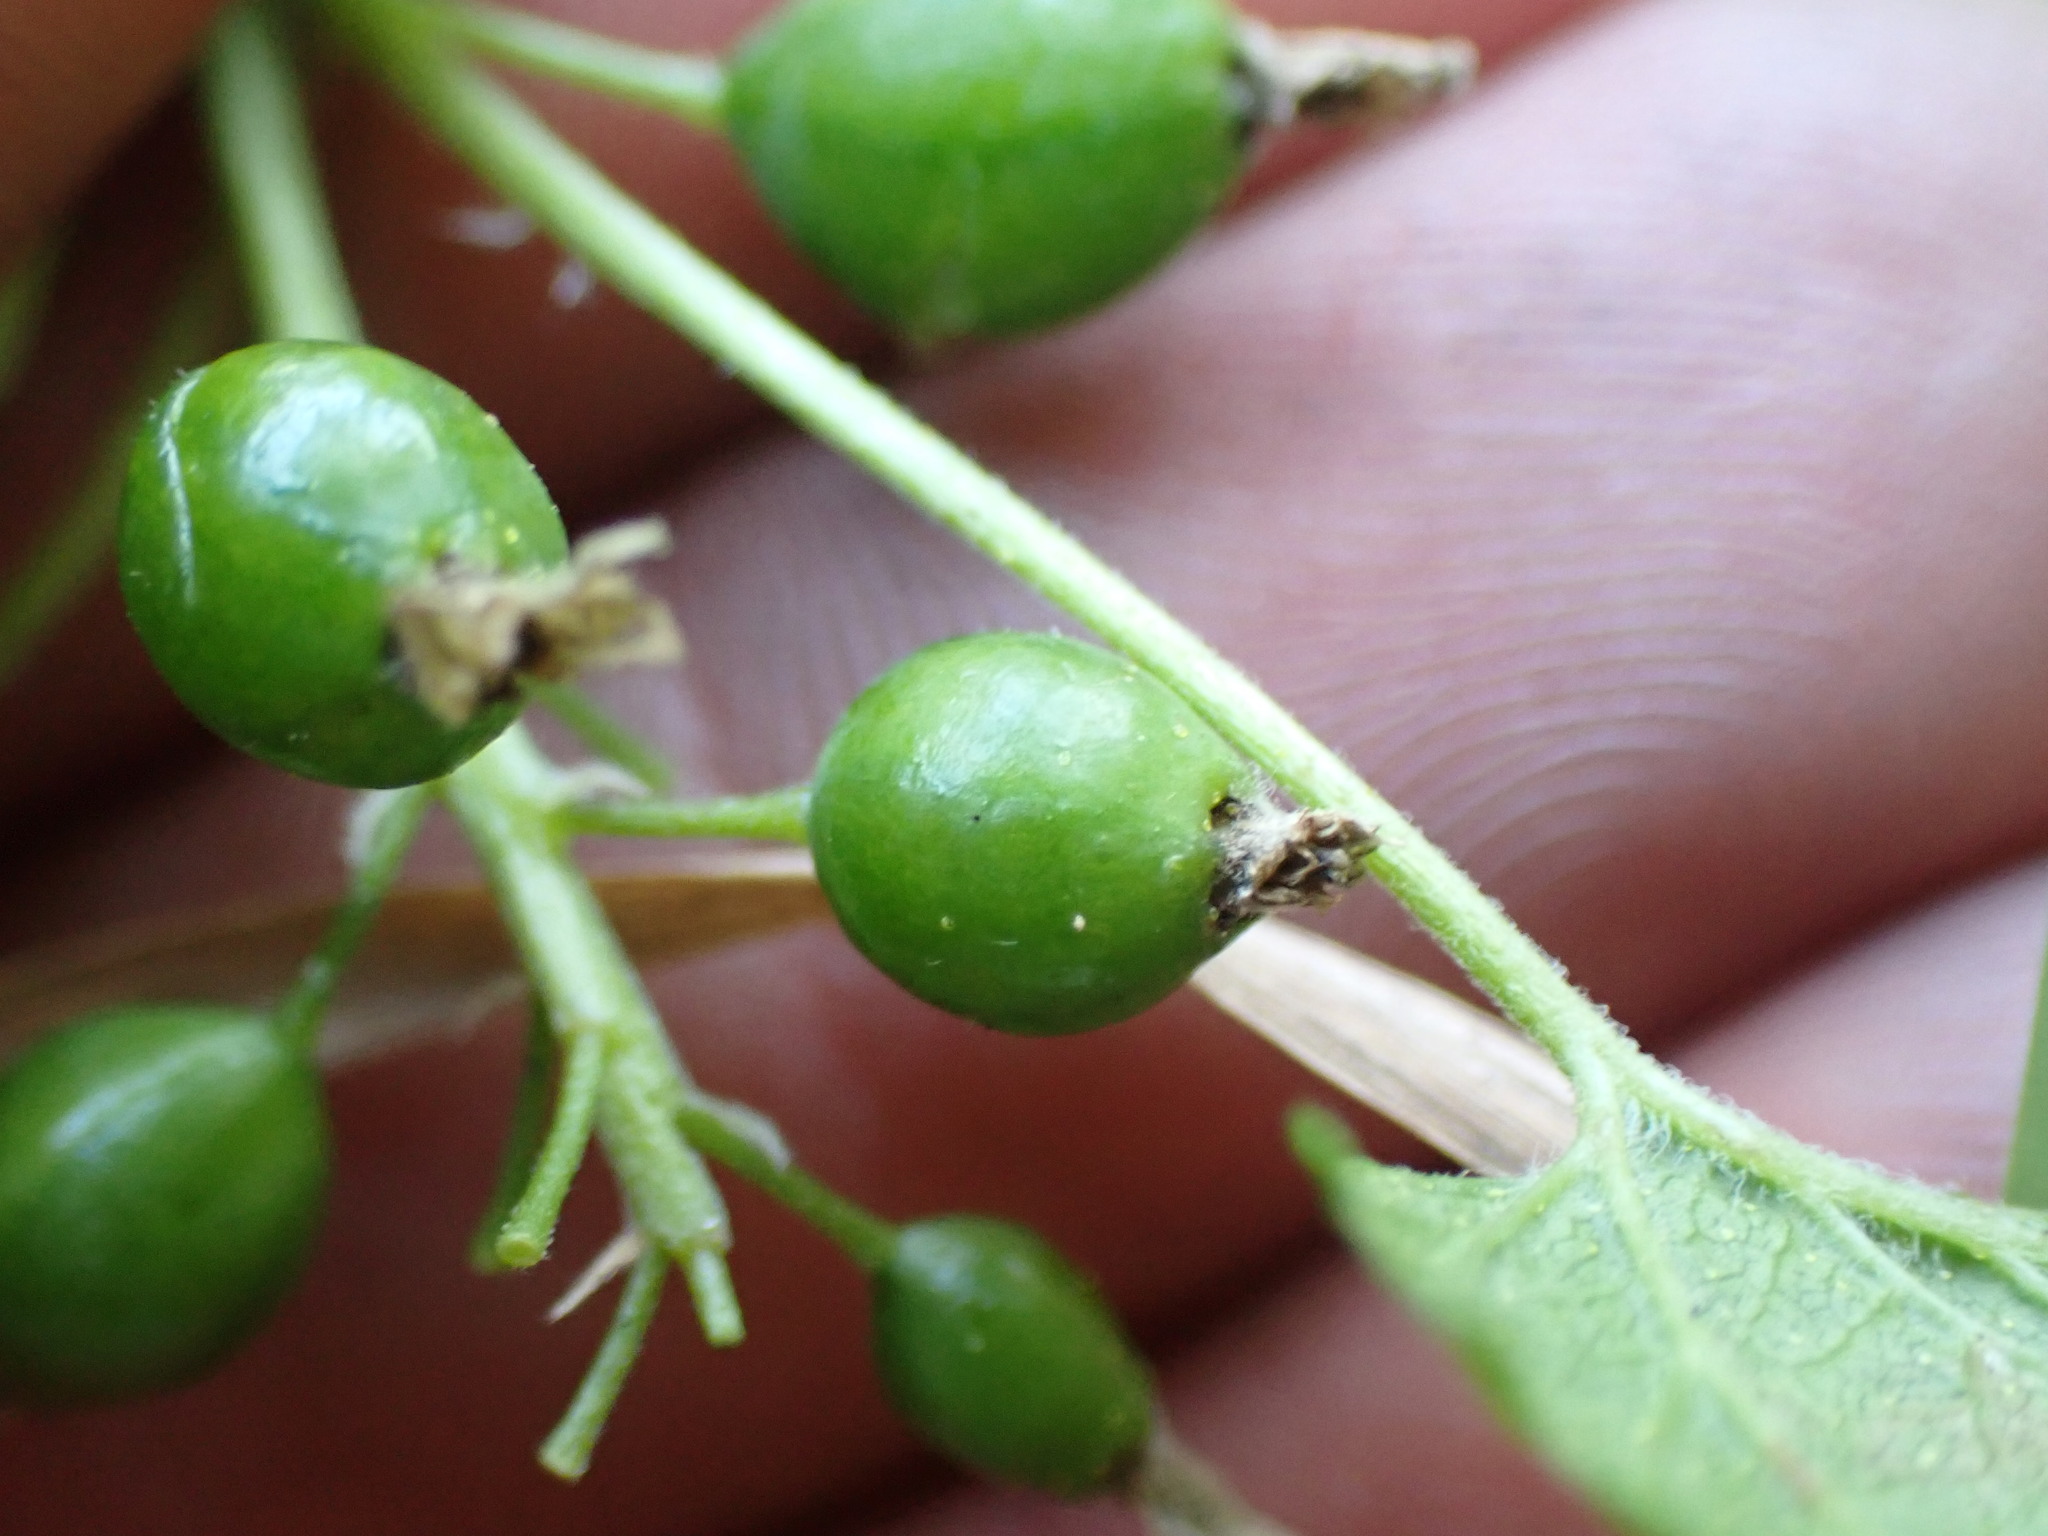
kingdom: Plantae
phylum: Tracheophyta
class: Magnoliopsida
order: Saxifragales
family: Grossulariaceae
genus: Ribes
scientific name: Ribes hudsonianum
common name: Northern black currant
